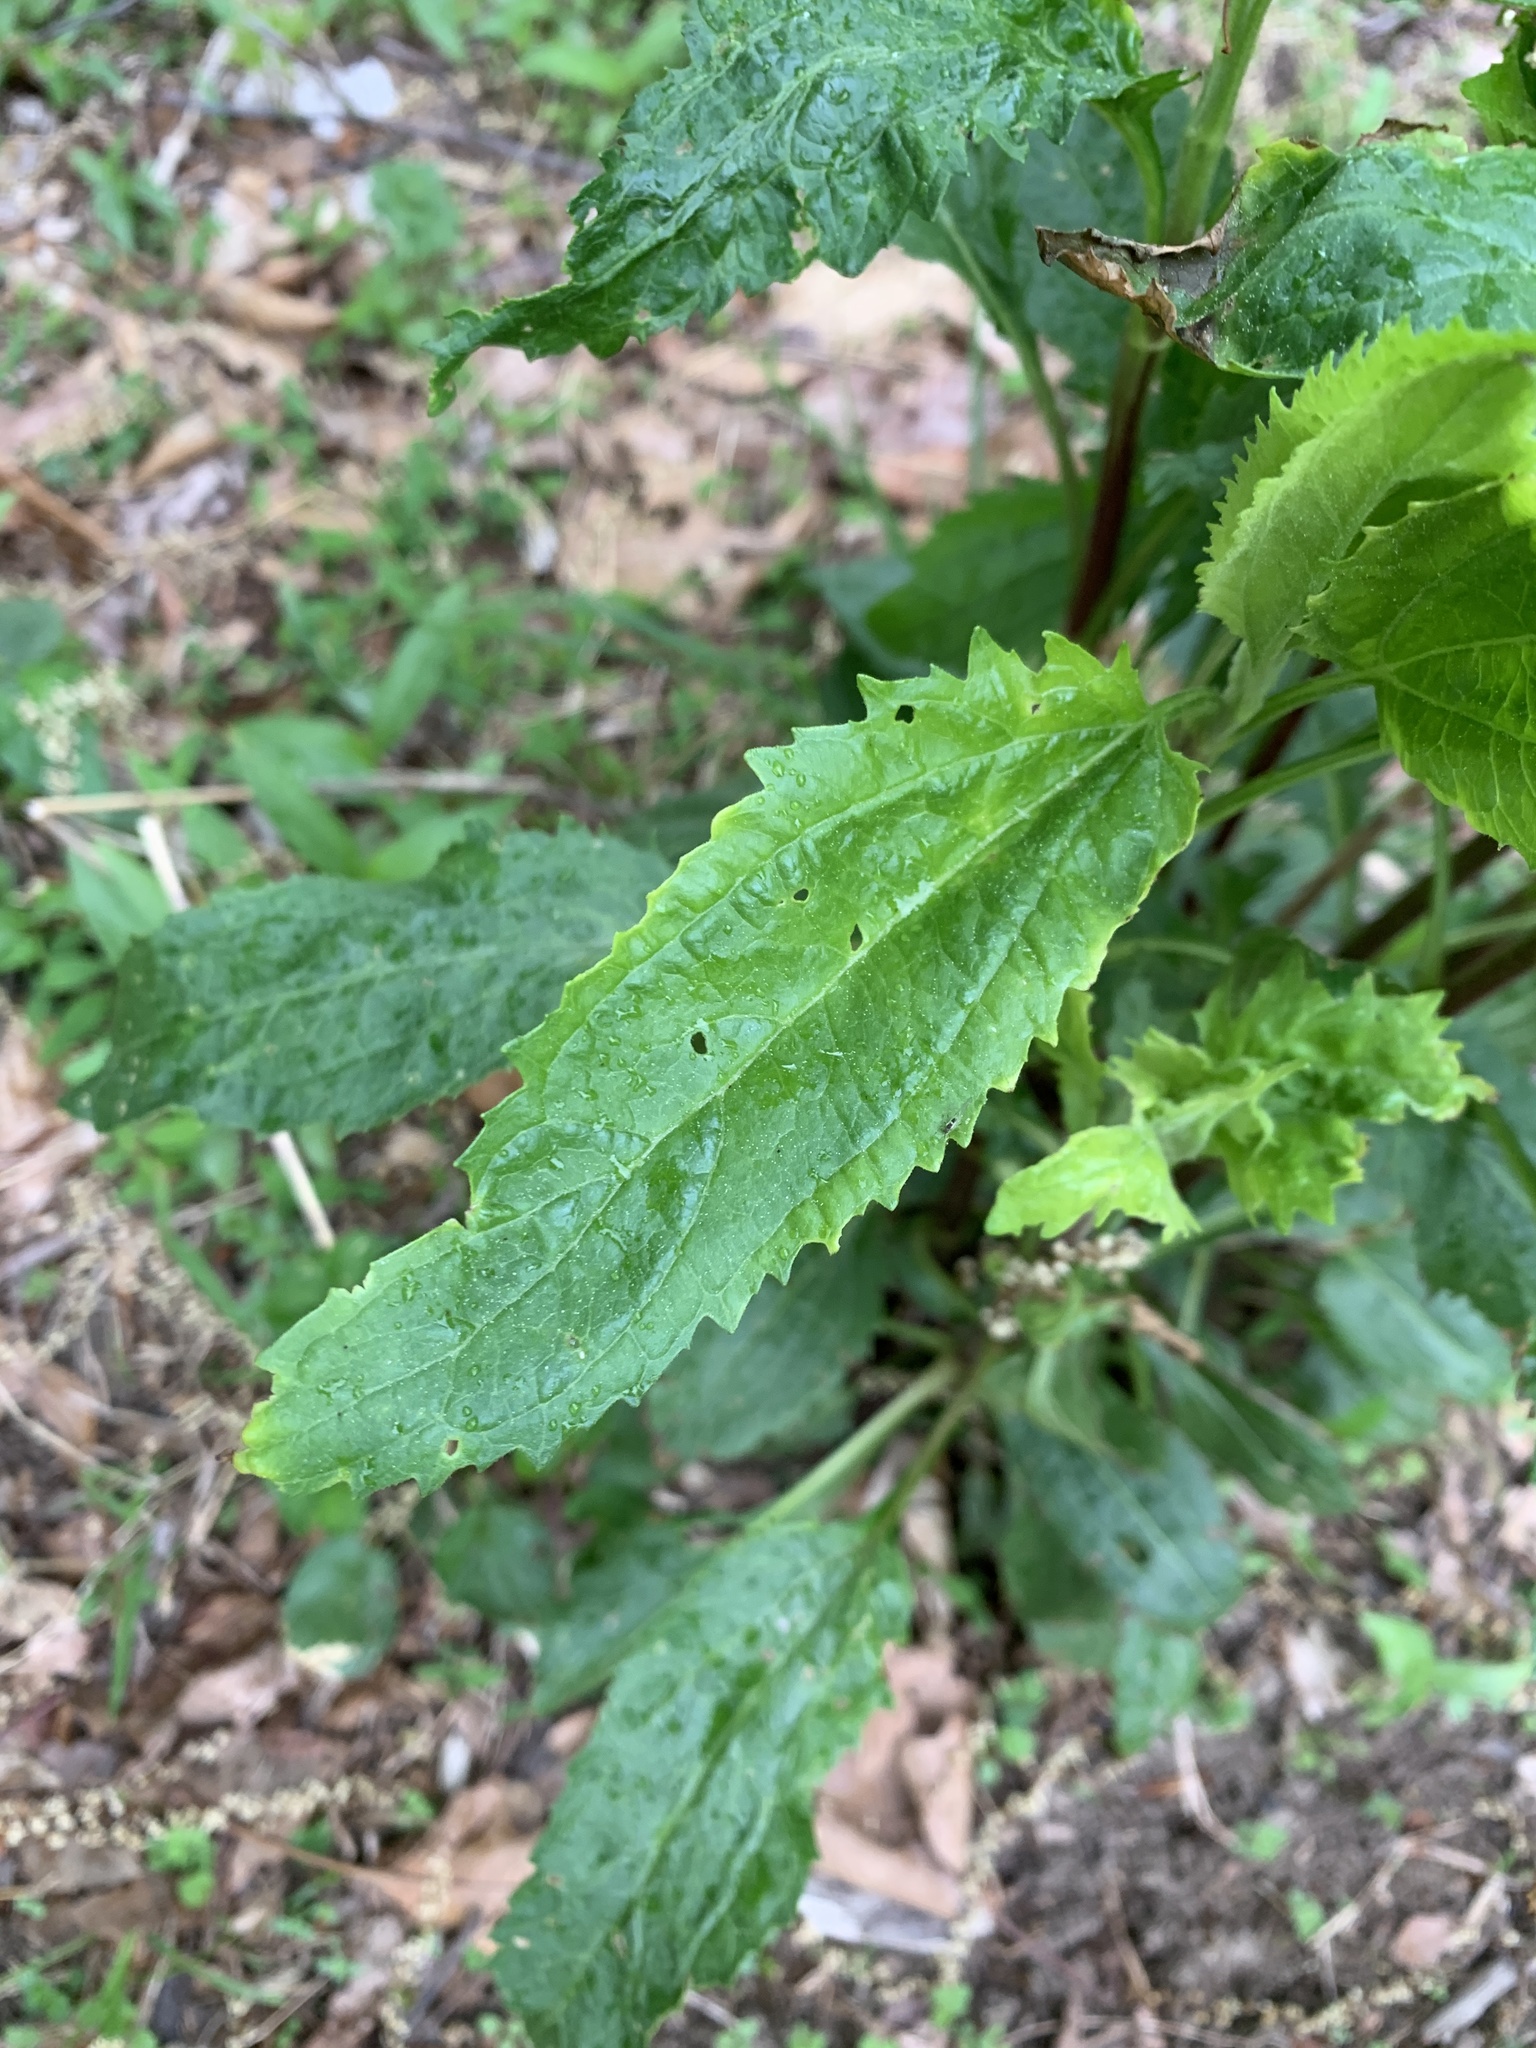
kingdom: Plantae
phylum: Tracheophyta
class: Magnoliopsida
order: Asterales
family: Asteraceae
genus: Eupatorium
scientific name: Eupatorium serotinum
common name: Late boneset
